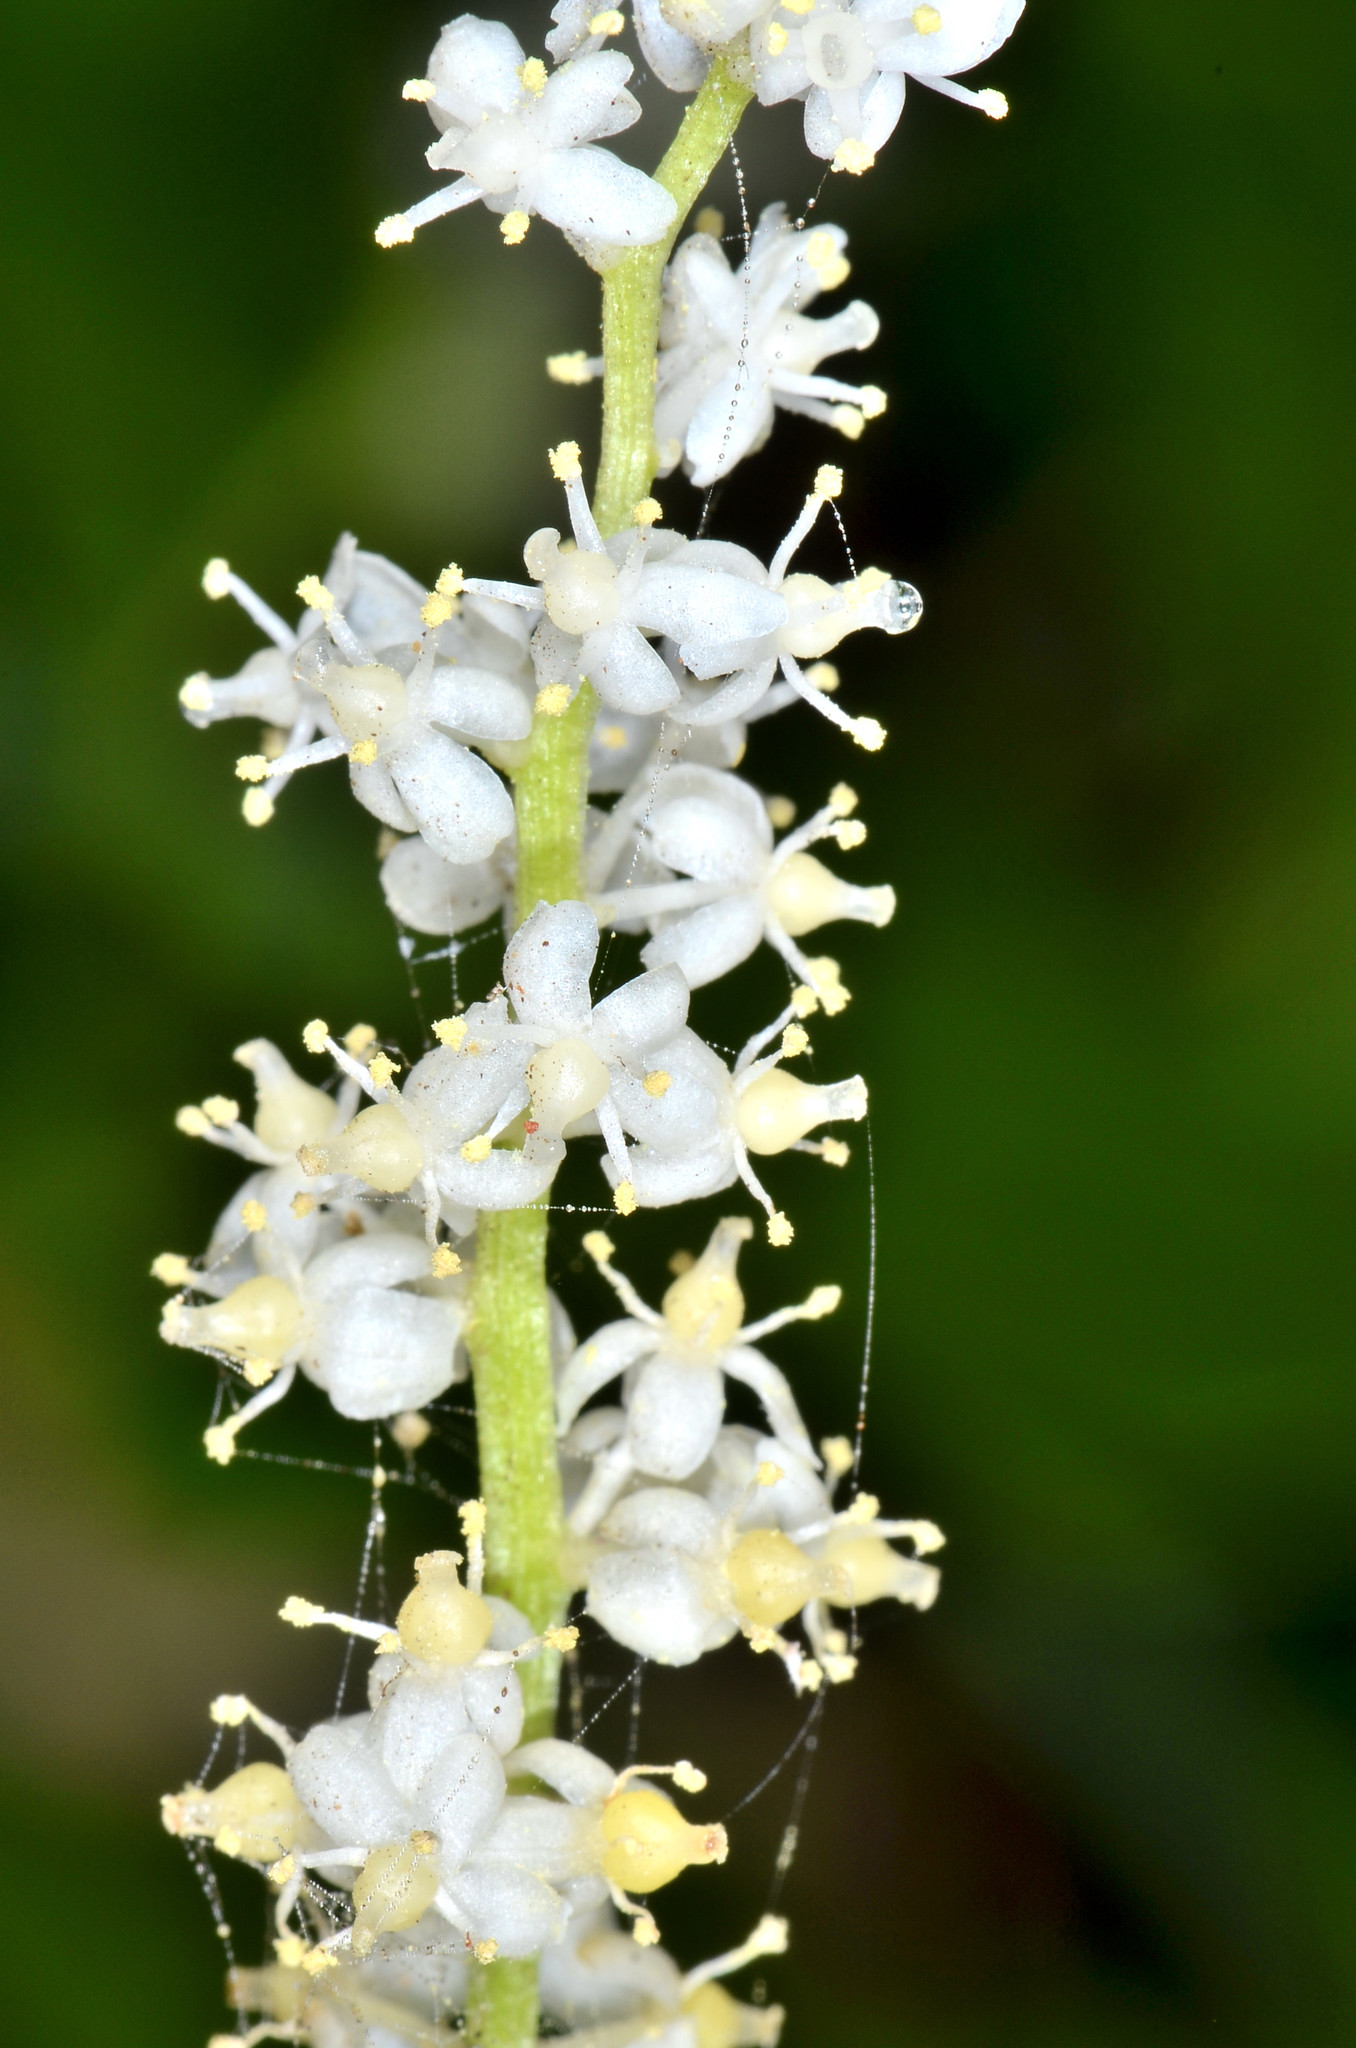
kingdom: Plantae
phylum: Tracheophyta
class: Liliopsida
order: Asparagales
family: Asparagaceae
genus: Maianthemum
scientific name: Maianthemum dilatatum
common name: False lily-of-the-valley
